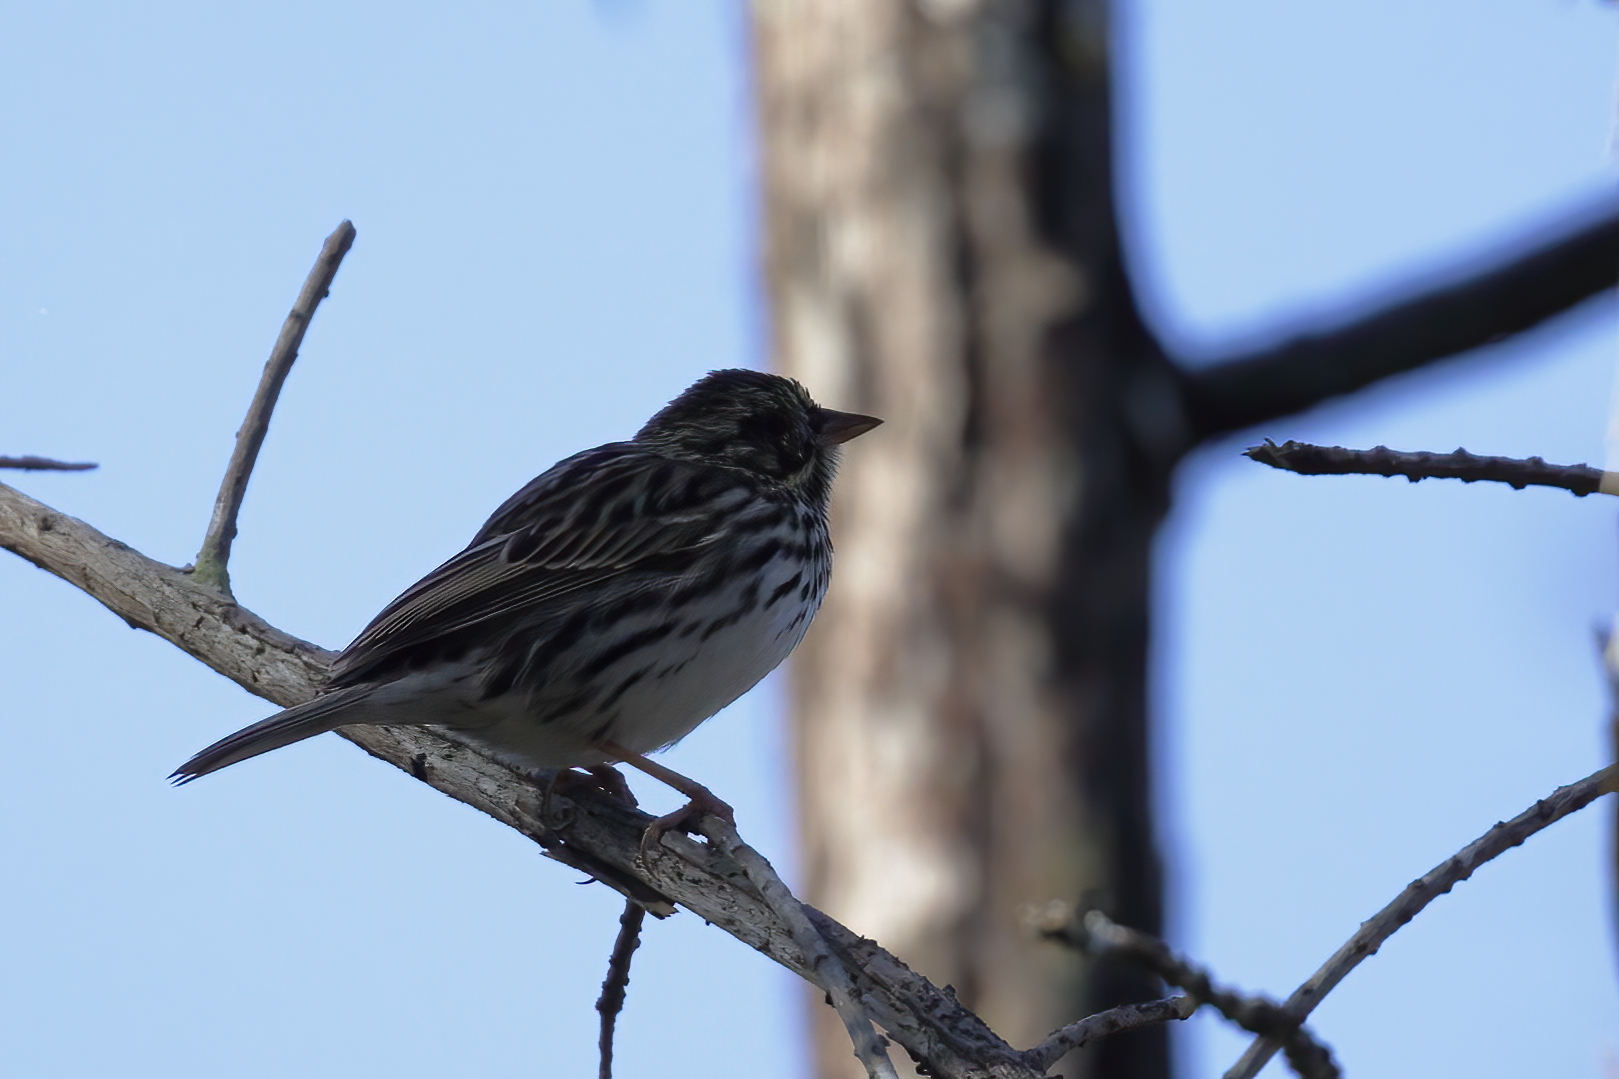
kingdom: Animalia
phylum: Chordata
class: Aves
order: Passeriformes
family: Passerellidae
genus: Passerculus
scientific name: Passerculus sandwichensis
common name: Savannah sparrow
